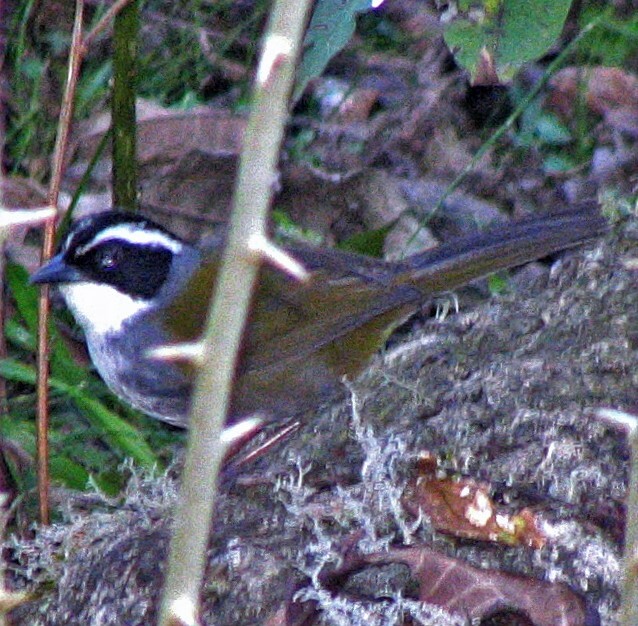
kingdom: Animalia
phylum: Chordata
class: Aves
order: Passeriformes
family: Passerellidae
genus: Arremon
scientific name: Arremon torquatus
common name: White-browed brushfinch
